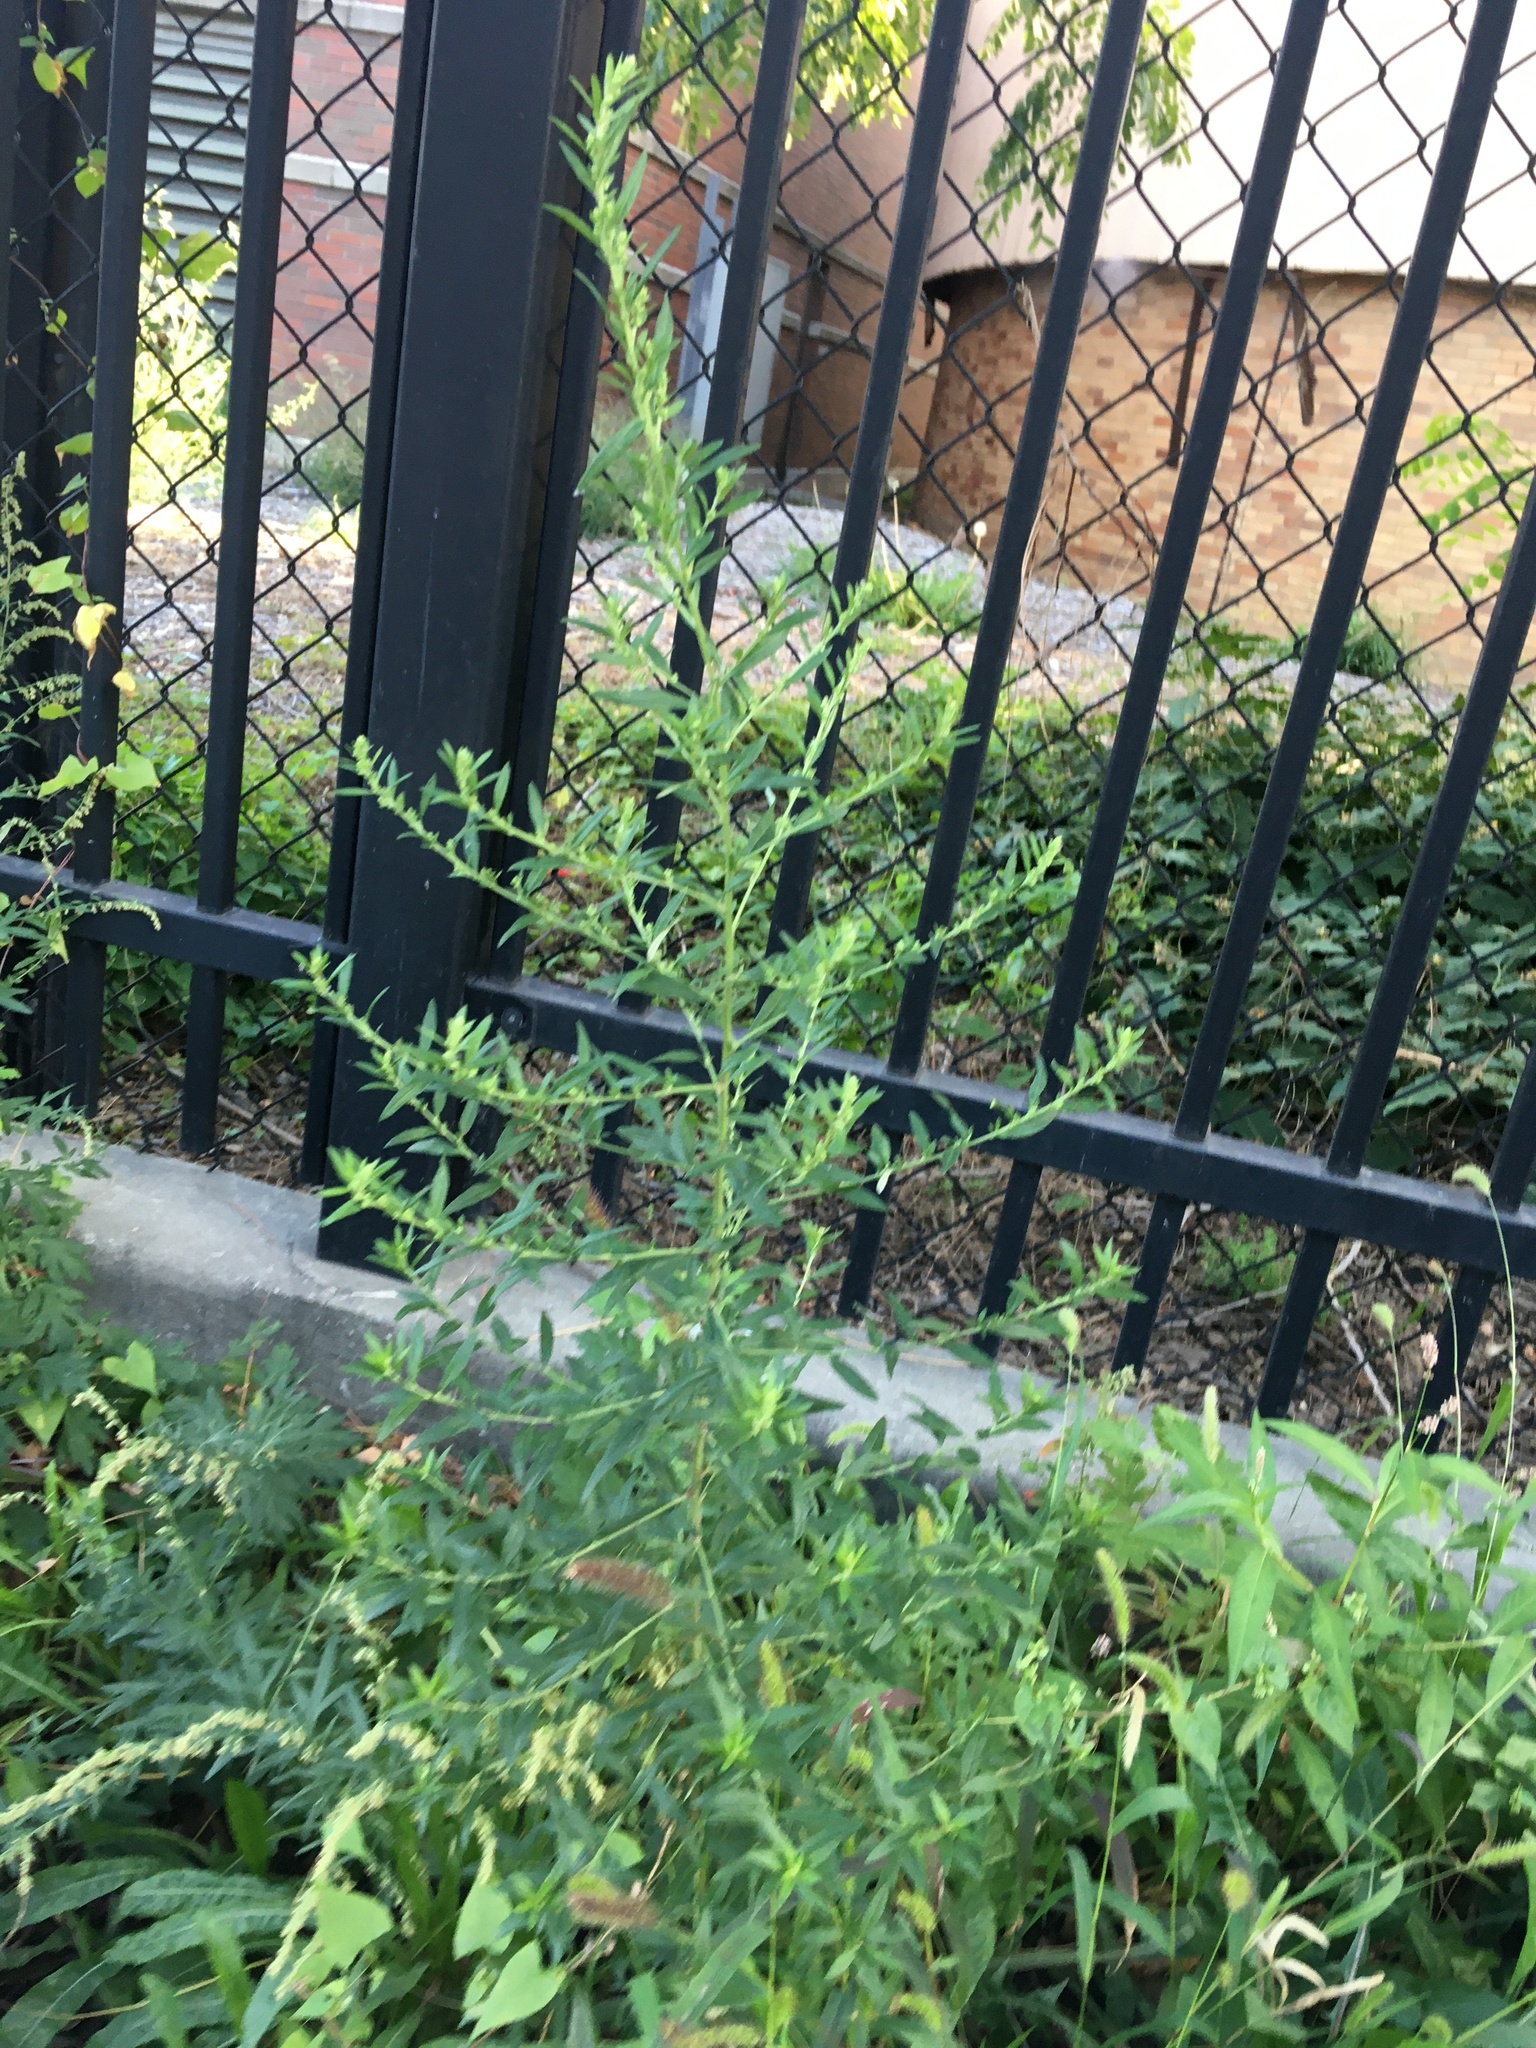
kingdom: Plantae
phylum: Tracheophyta
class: Magnoliopsida
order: Asterales
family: Asteraceae
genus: Artemisia
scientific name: Artemisia vulgaris
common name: Mugwort
